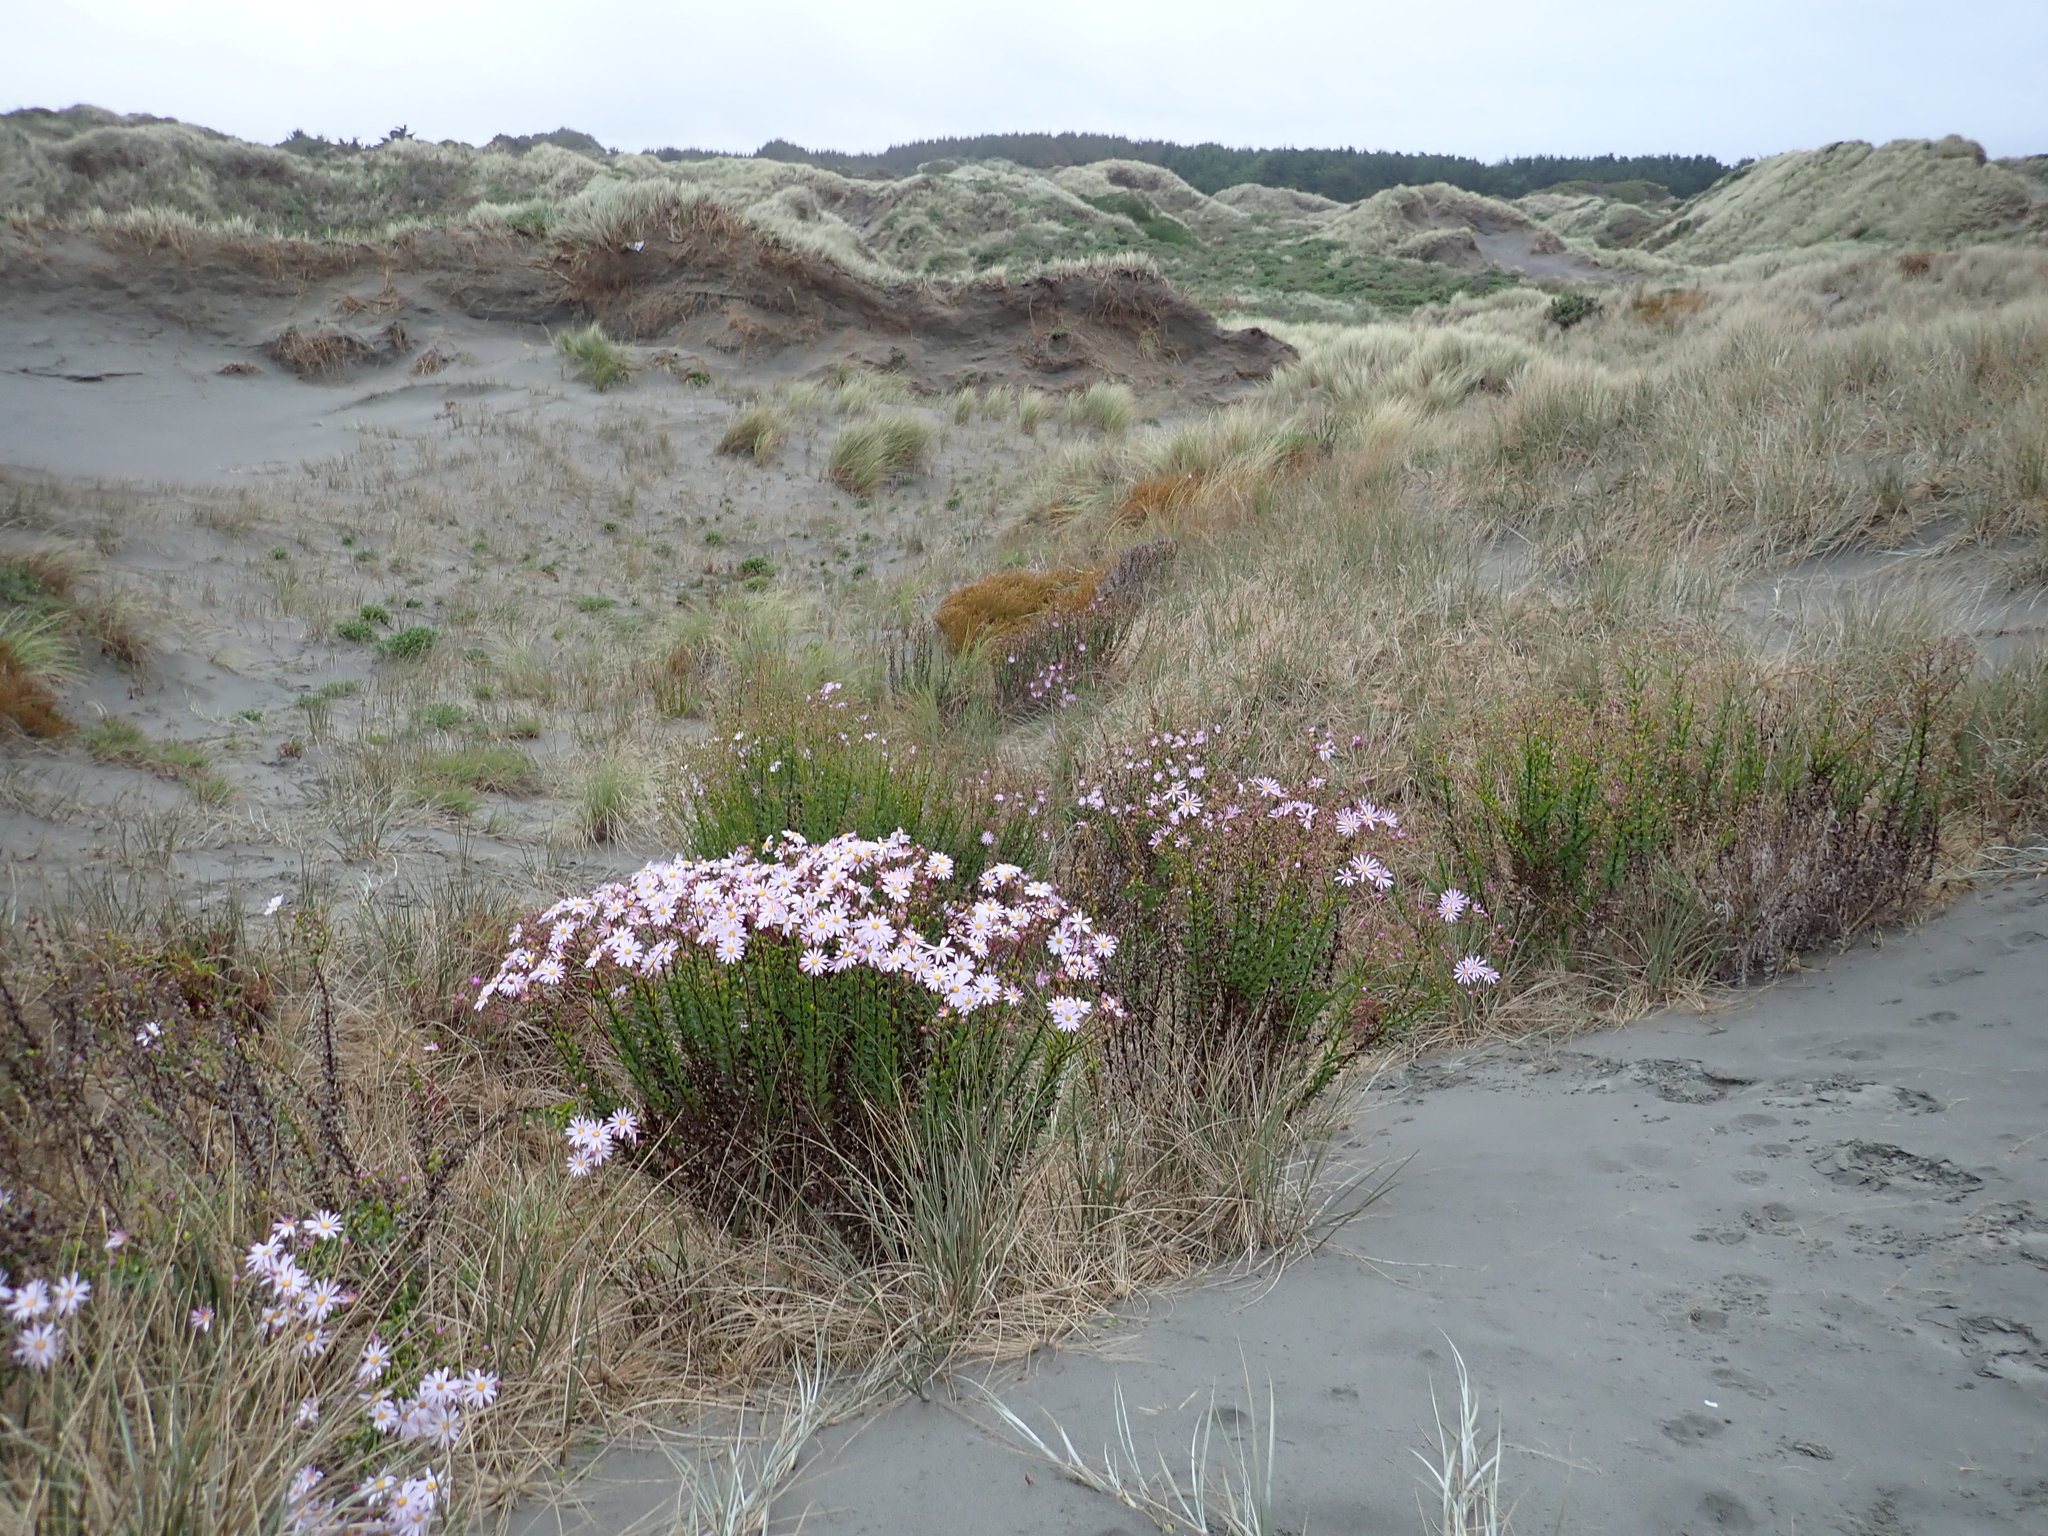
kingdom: Plantae
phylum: Tracheophyta
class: Magnoliopsida
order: Asterales
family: Asteraceae
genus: Senecio
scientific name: Senecio glastifolius
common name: Woad-leaved ragwort
